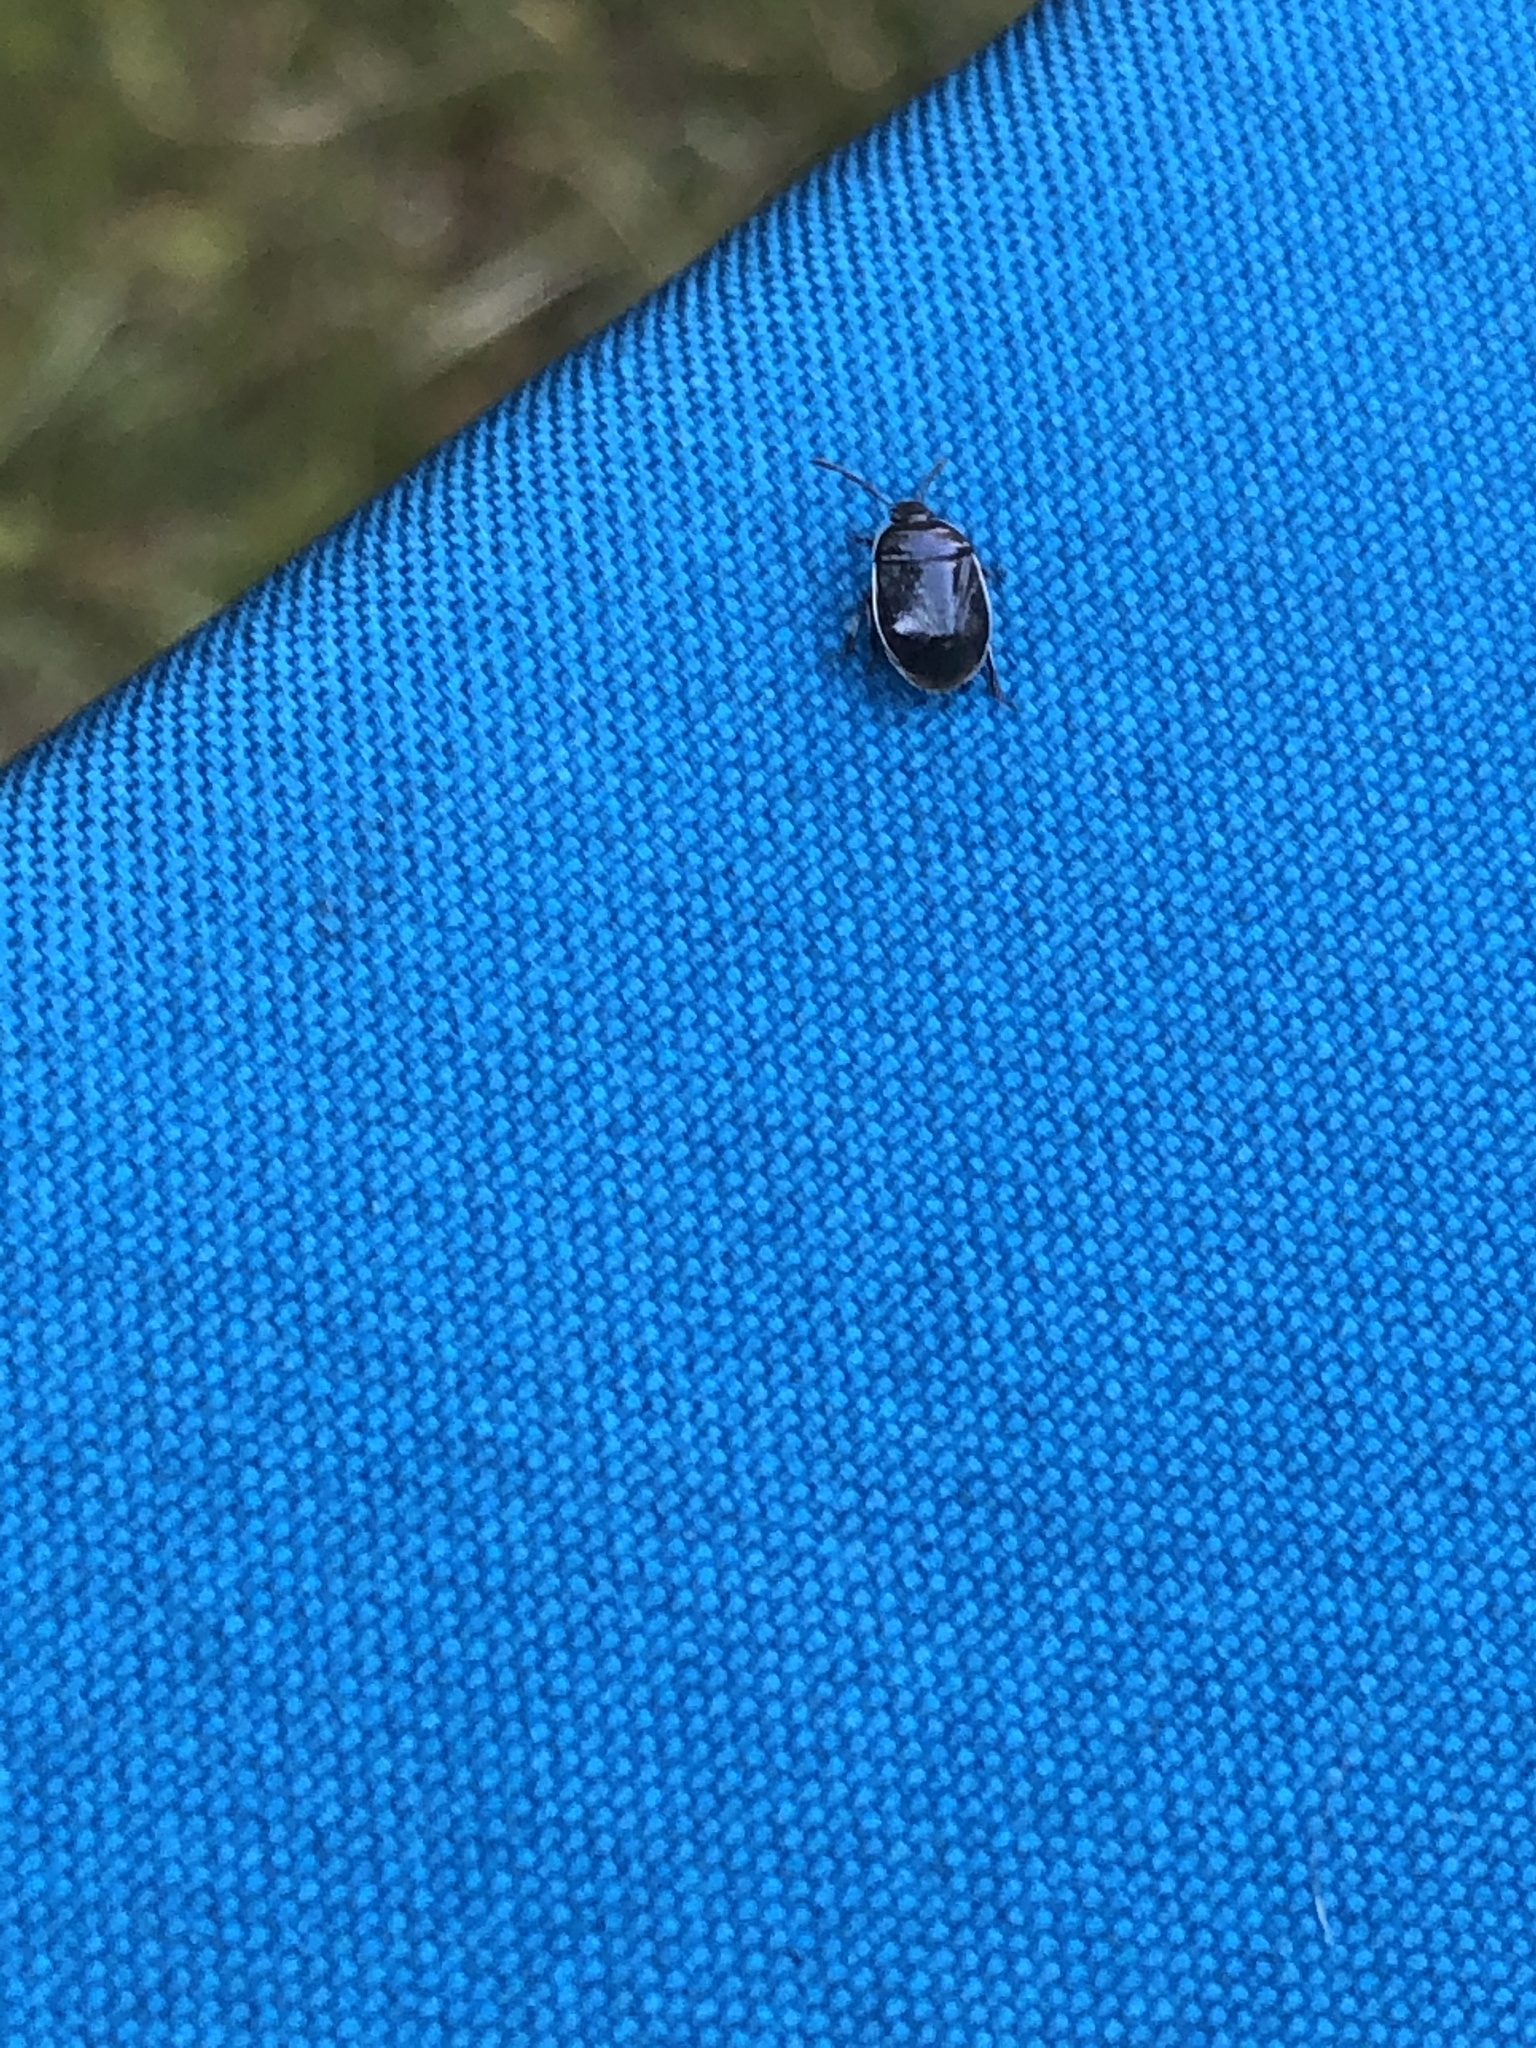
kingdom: Animalia
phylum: Arthropoda
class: Insecta
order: Hemiptera
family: Cydnidae
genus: Sehirus
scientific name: Sehirus cinctus
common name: White-margined burrower bug
